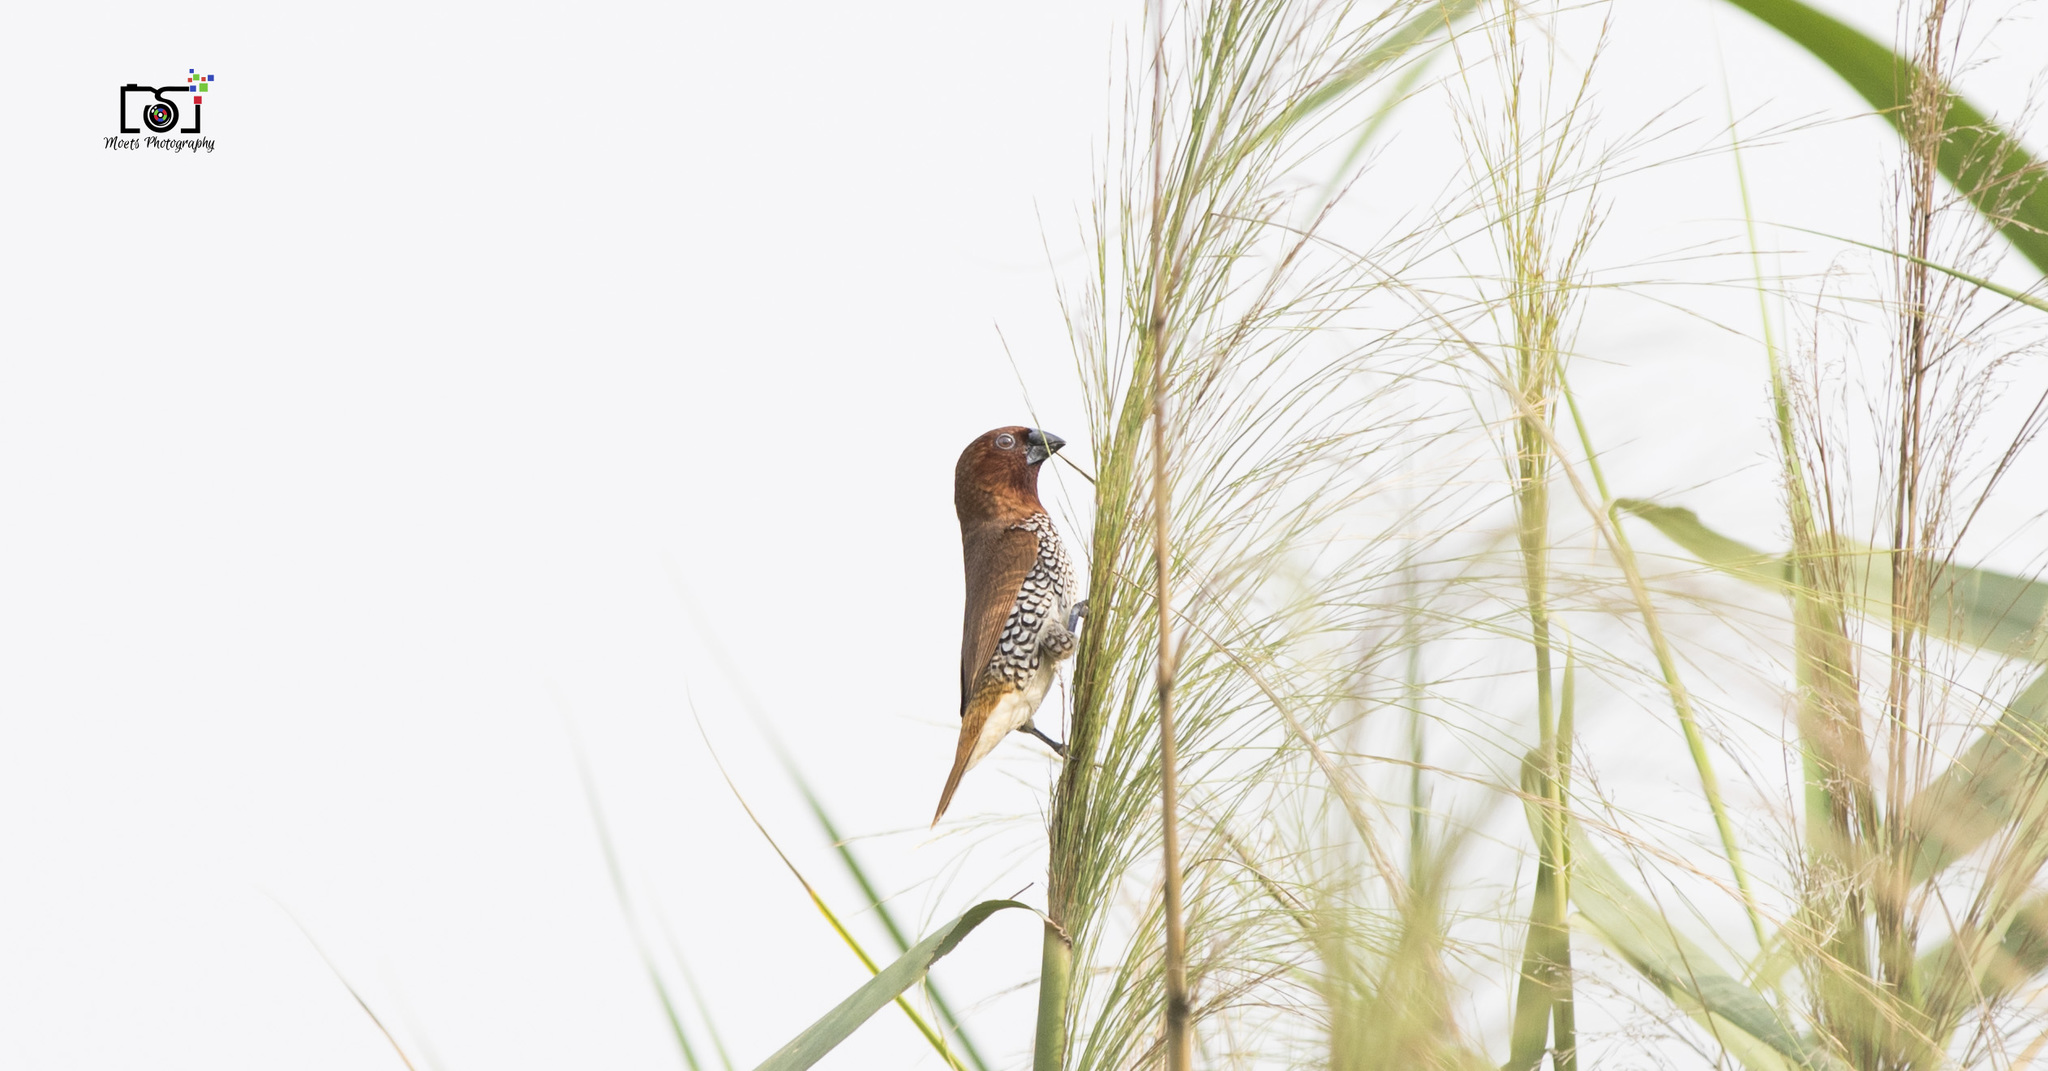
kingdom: Animalia
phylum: Chordata
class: Aves
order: Passeriformes
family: Estrildidae
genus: Lonchura
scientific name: Lonchura punctulata
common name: Scaly-breasted munia
